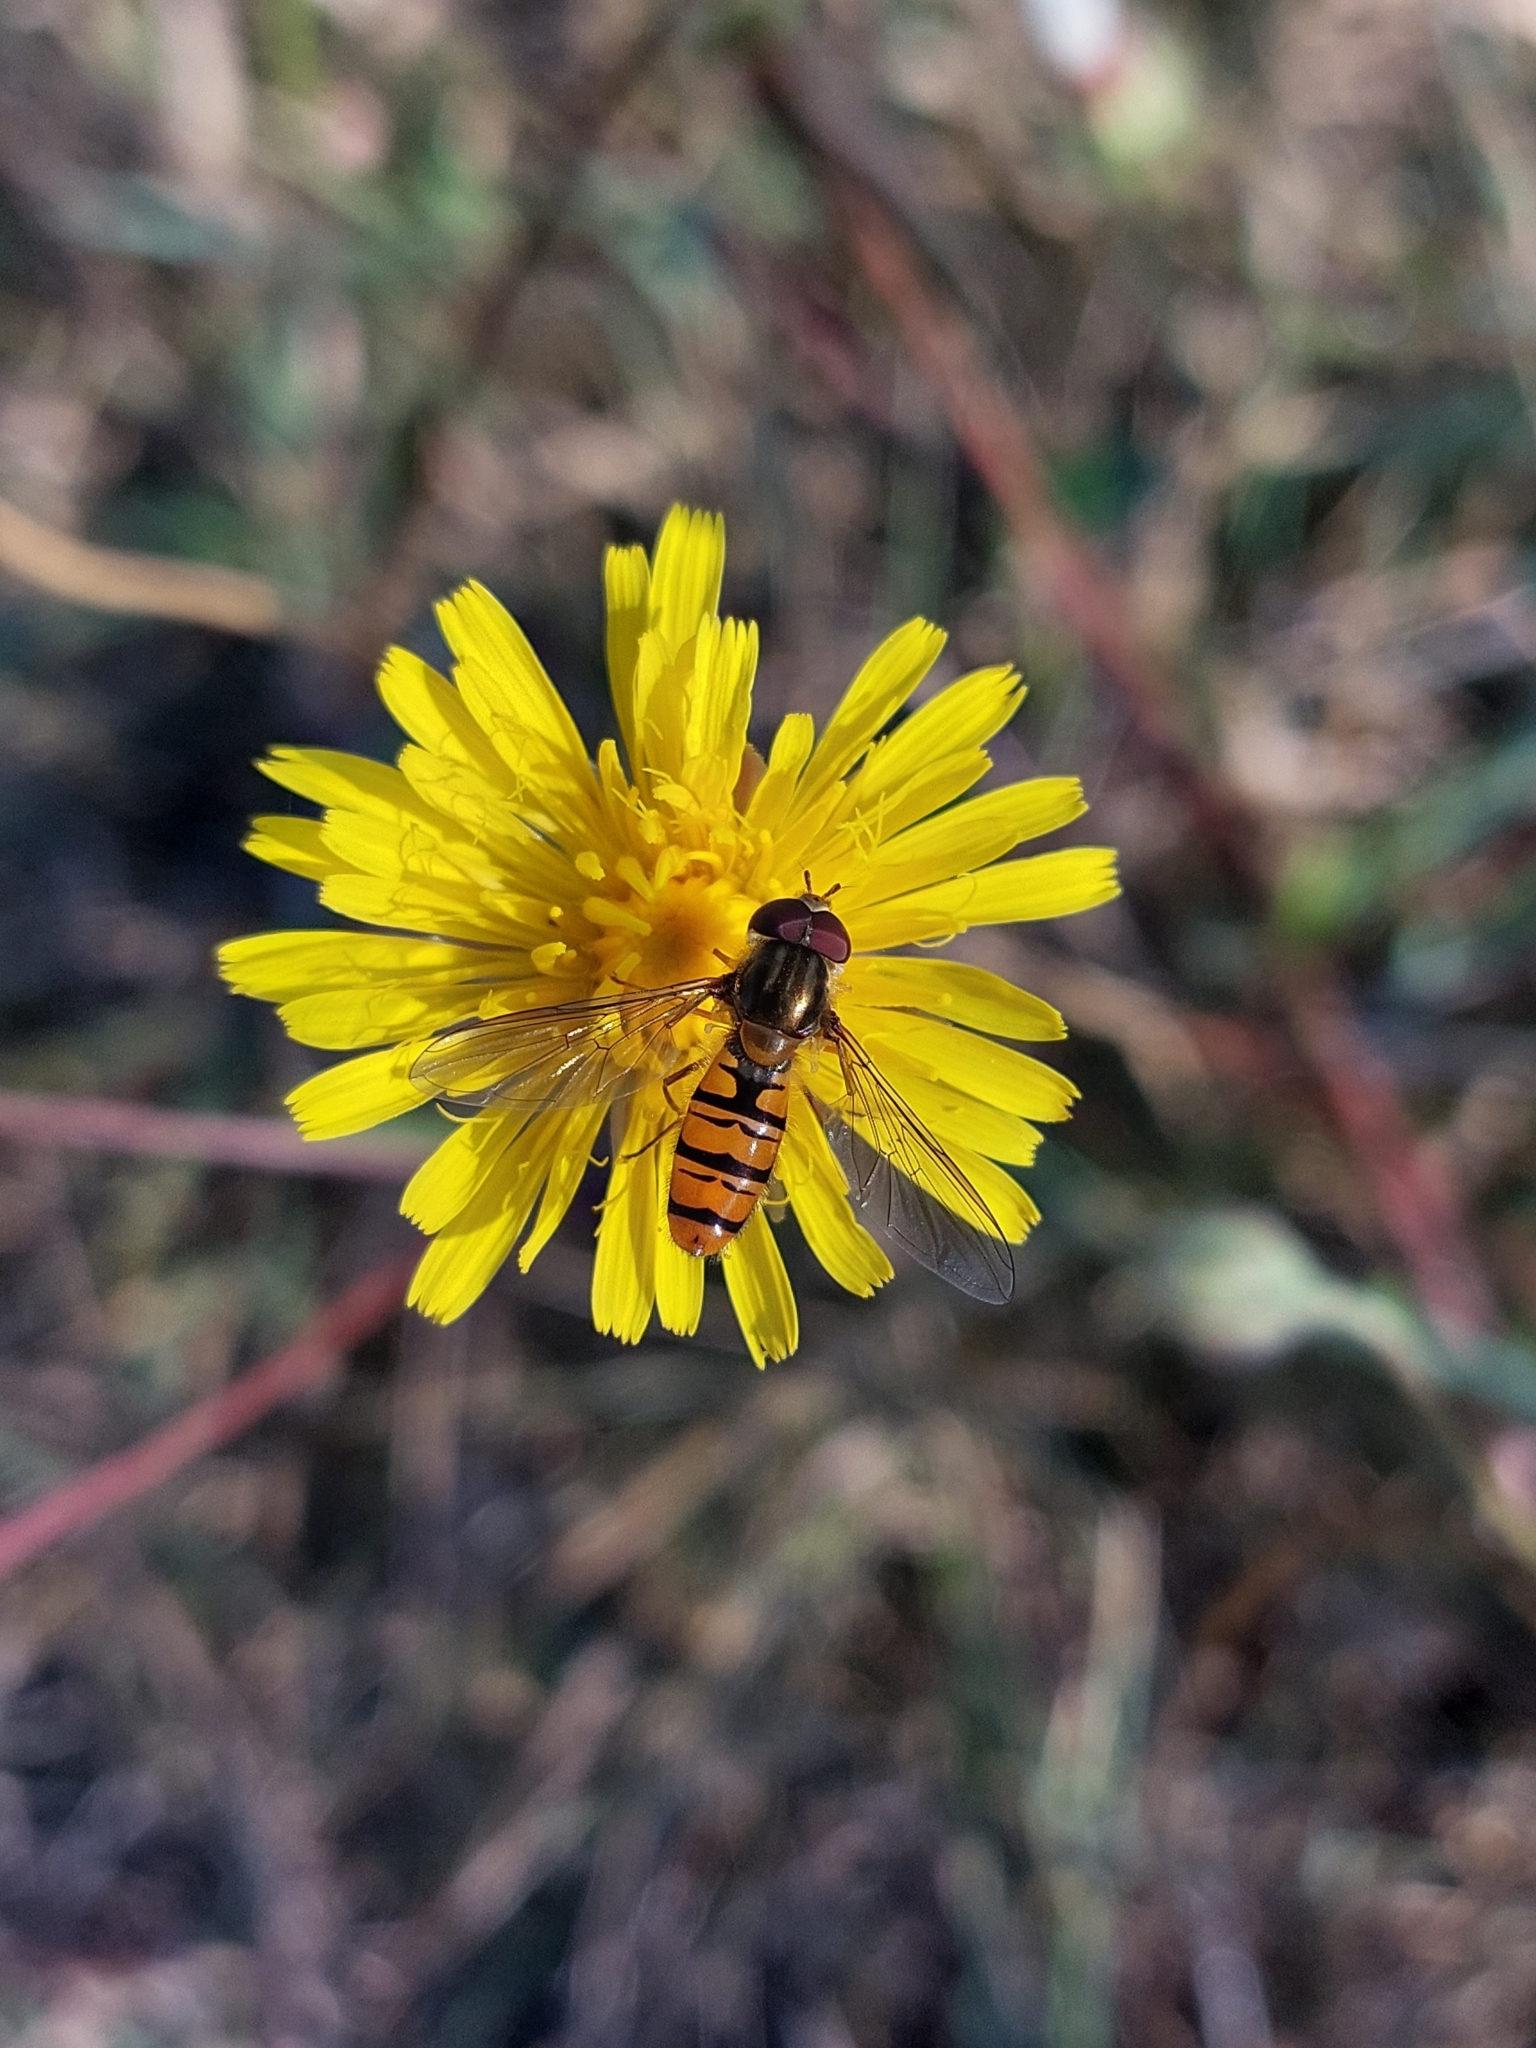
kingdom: Animalia
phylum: Arthropoda
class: Insecta
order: Diptera
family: Syrphidae
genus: Episyrphus
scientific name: Episyrphus balteatus
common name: Marmalade hoverfly
